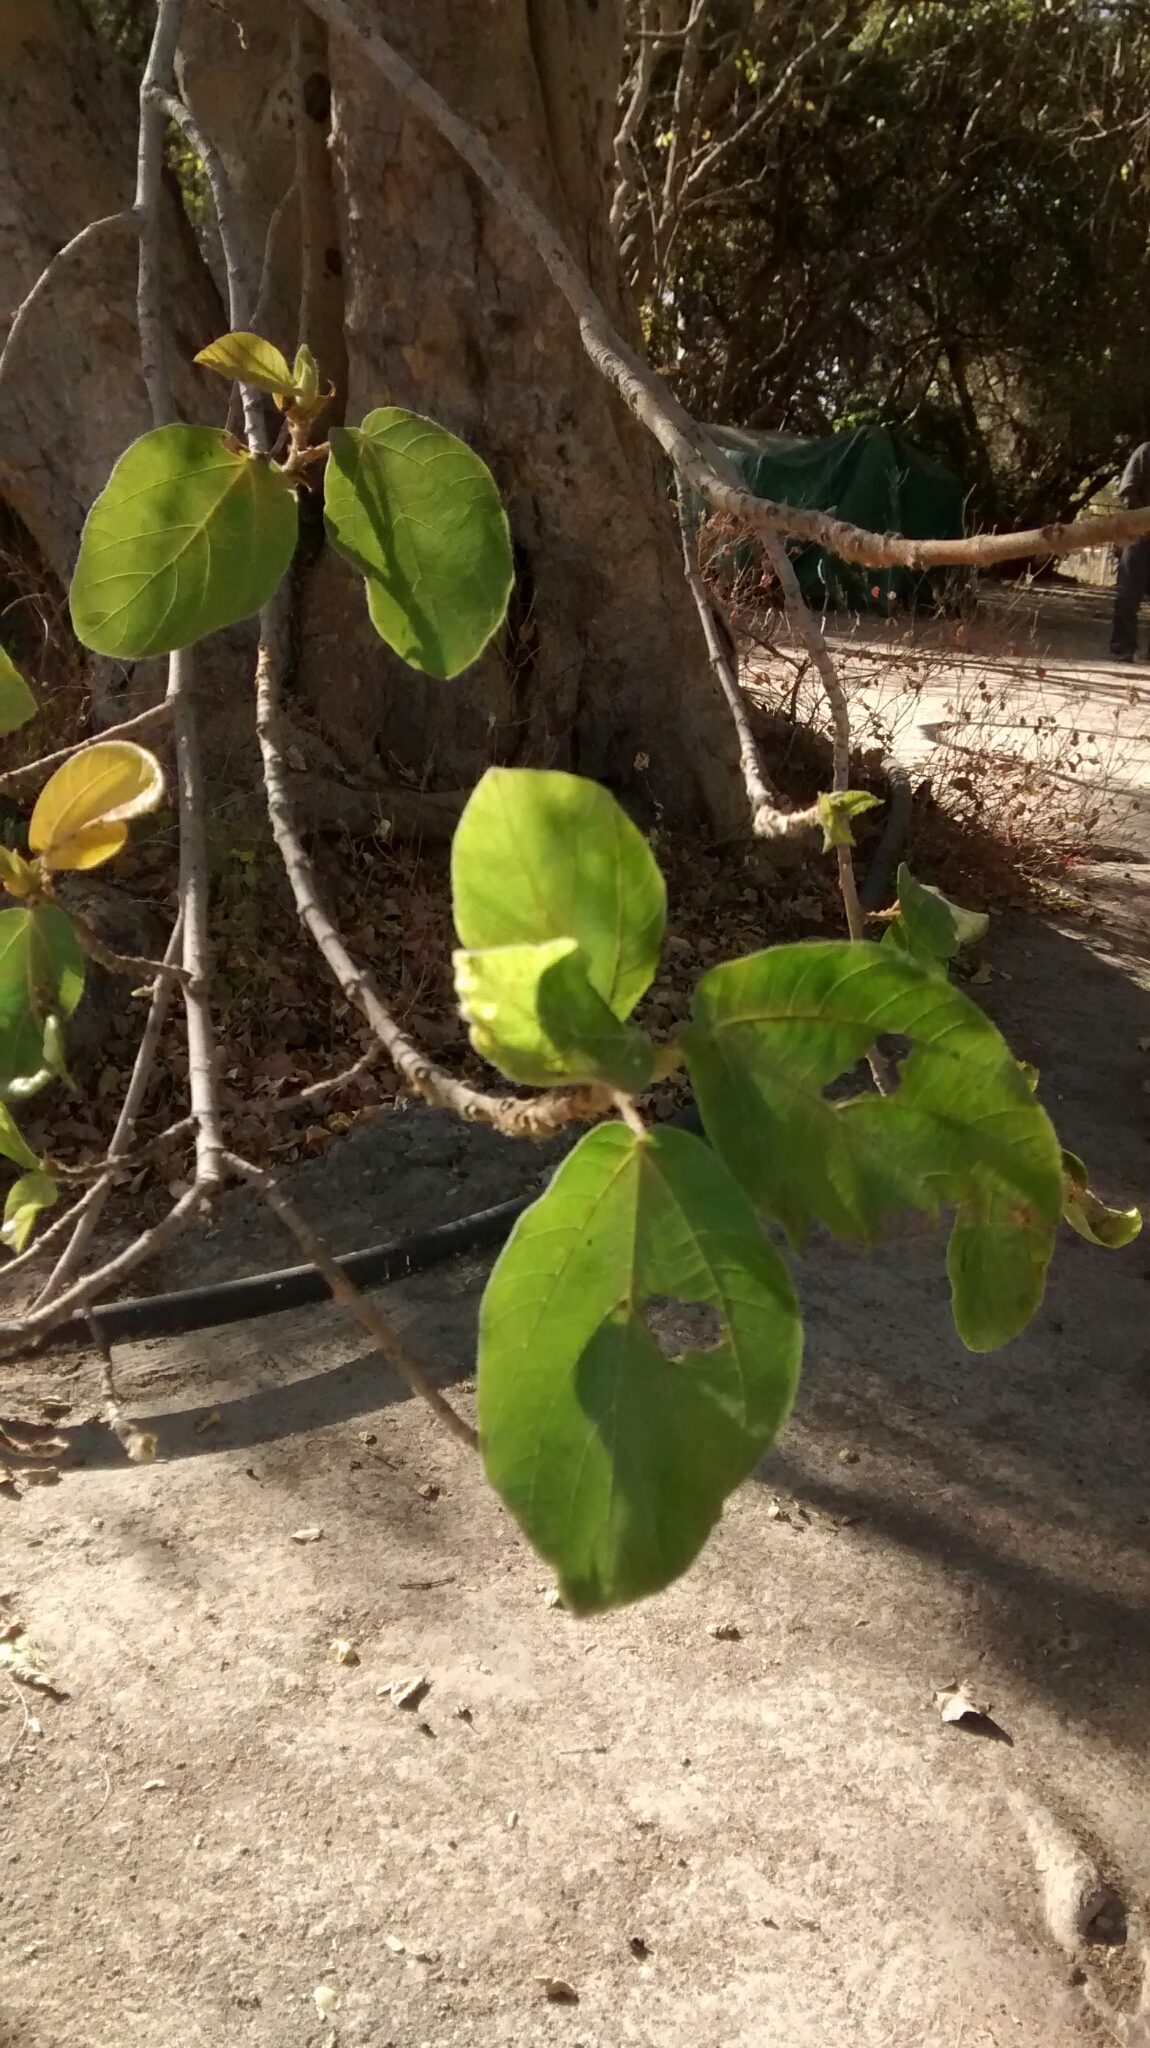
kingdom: Plantae
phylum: Tracheophyta
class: Magnoliopsida
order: Rosales
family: Moraceae
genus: Ficus
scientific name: Ficus sycomorus
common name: Sycomore
